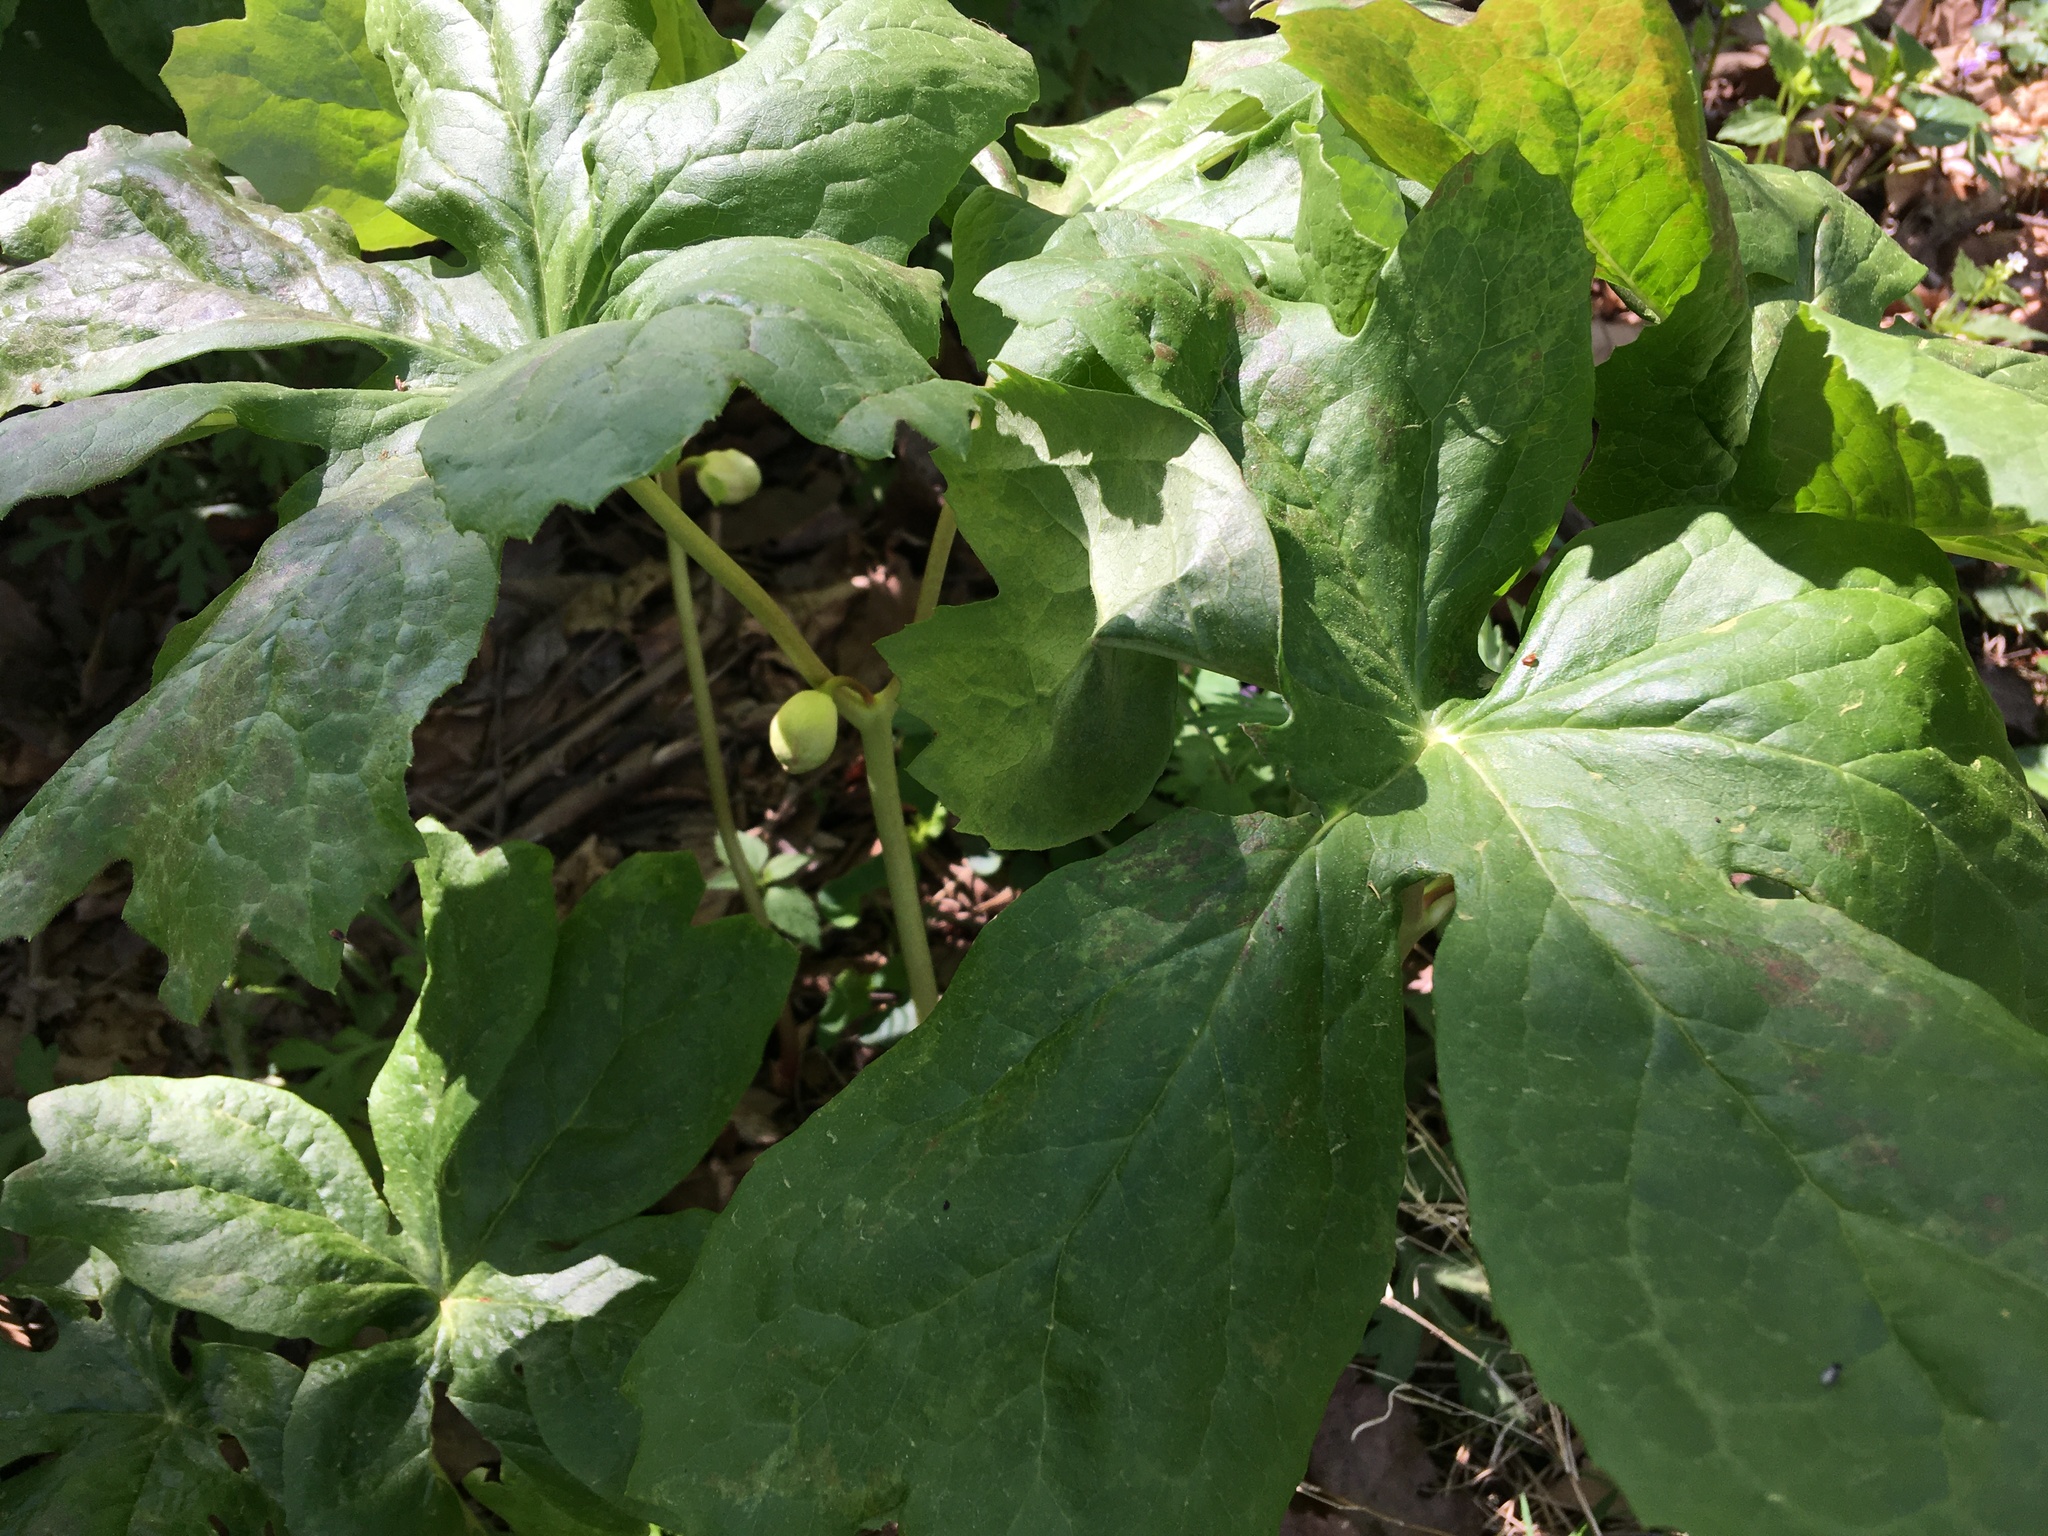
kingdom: Plantae
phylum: Tracheophyta
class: Magnoliopsida
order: Ranunculales
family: Berberidaceae
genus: Podophyllum
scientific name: Podophyllum peltatum
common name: Wild mandrake
